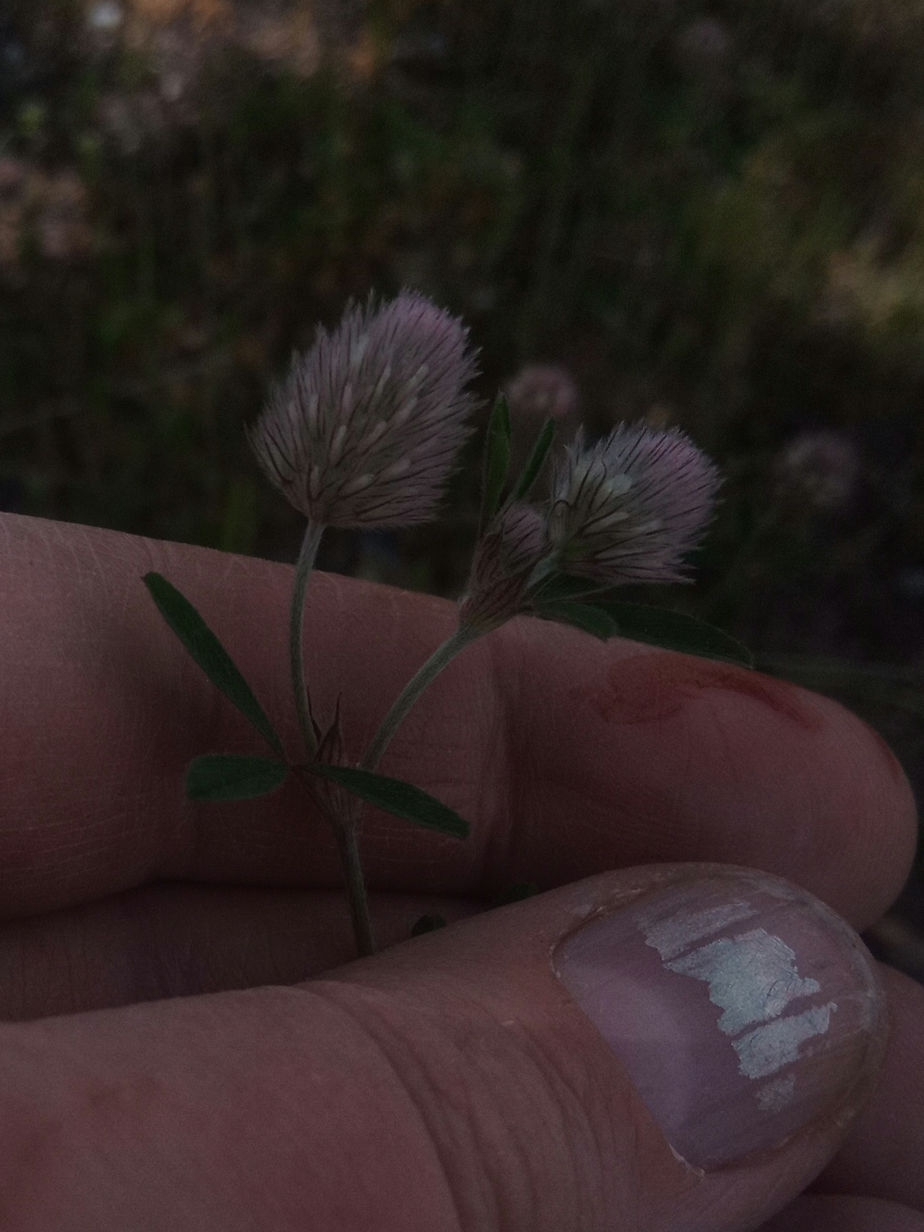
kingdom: Plantae
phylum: Tracheophyta
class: Magnoliopsida
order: Fabales
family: Fabaceae
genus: Trifolium
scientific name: Trifolium arvense
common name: Hare's-foot clover
